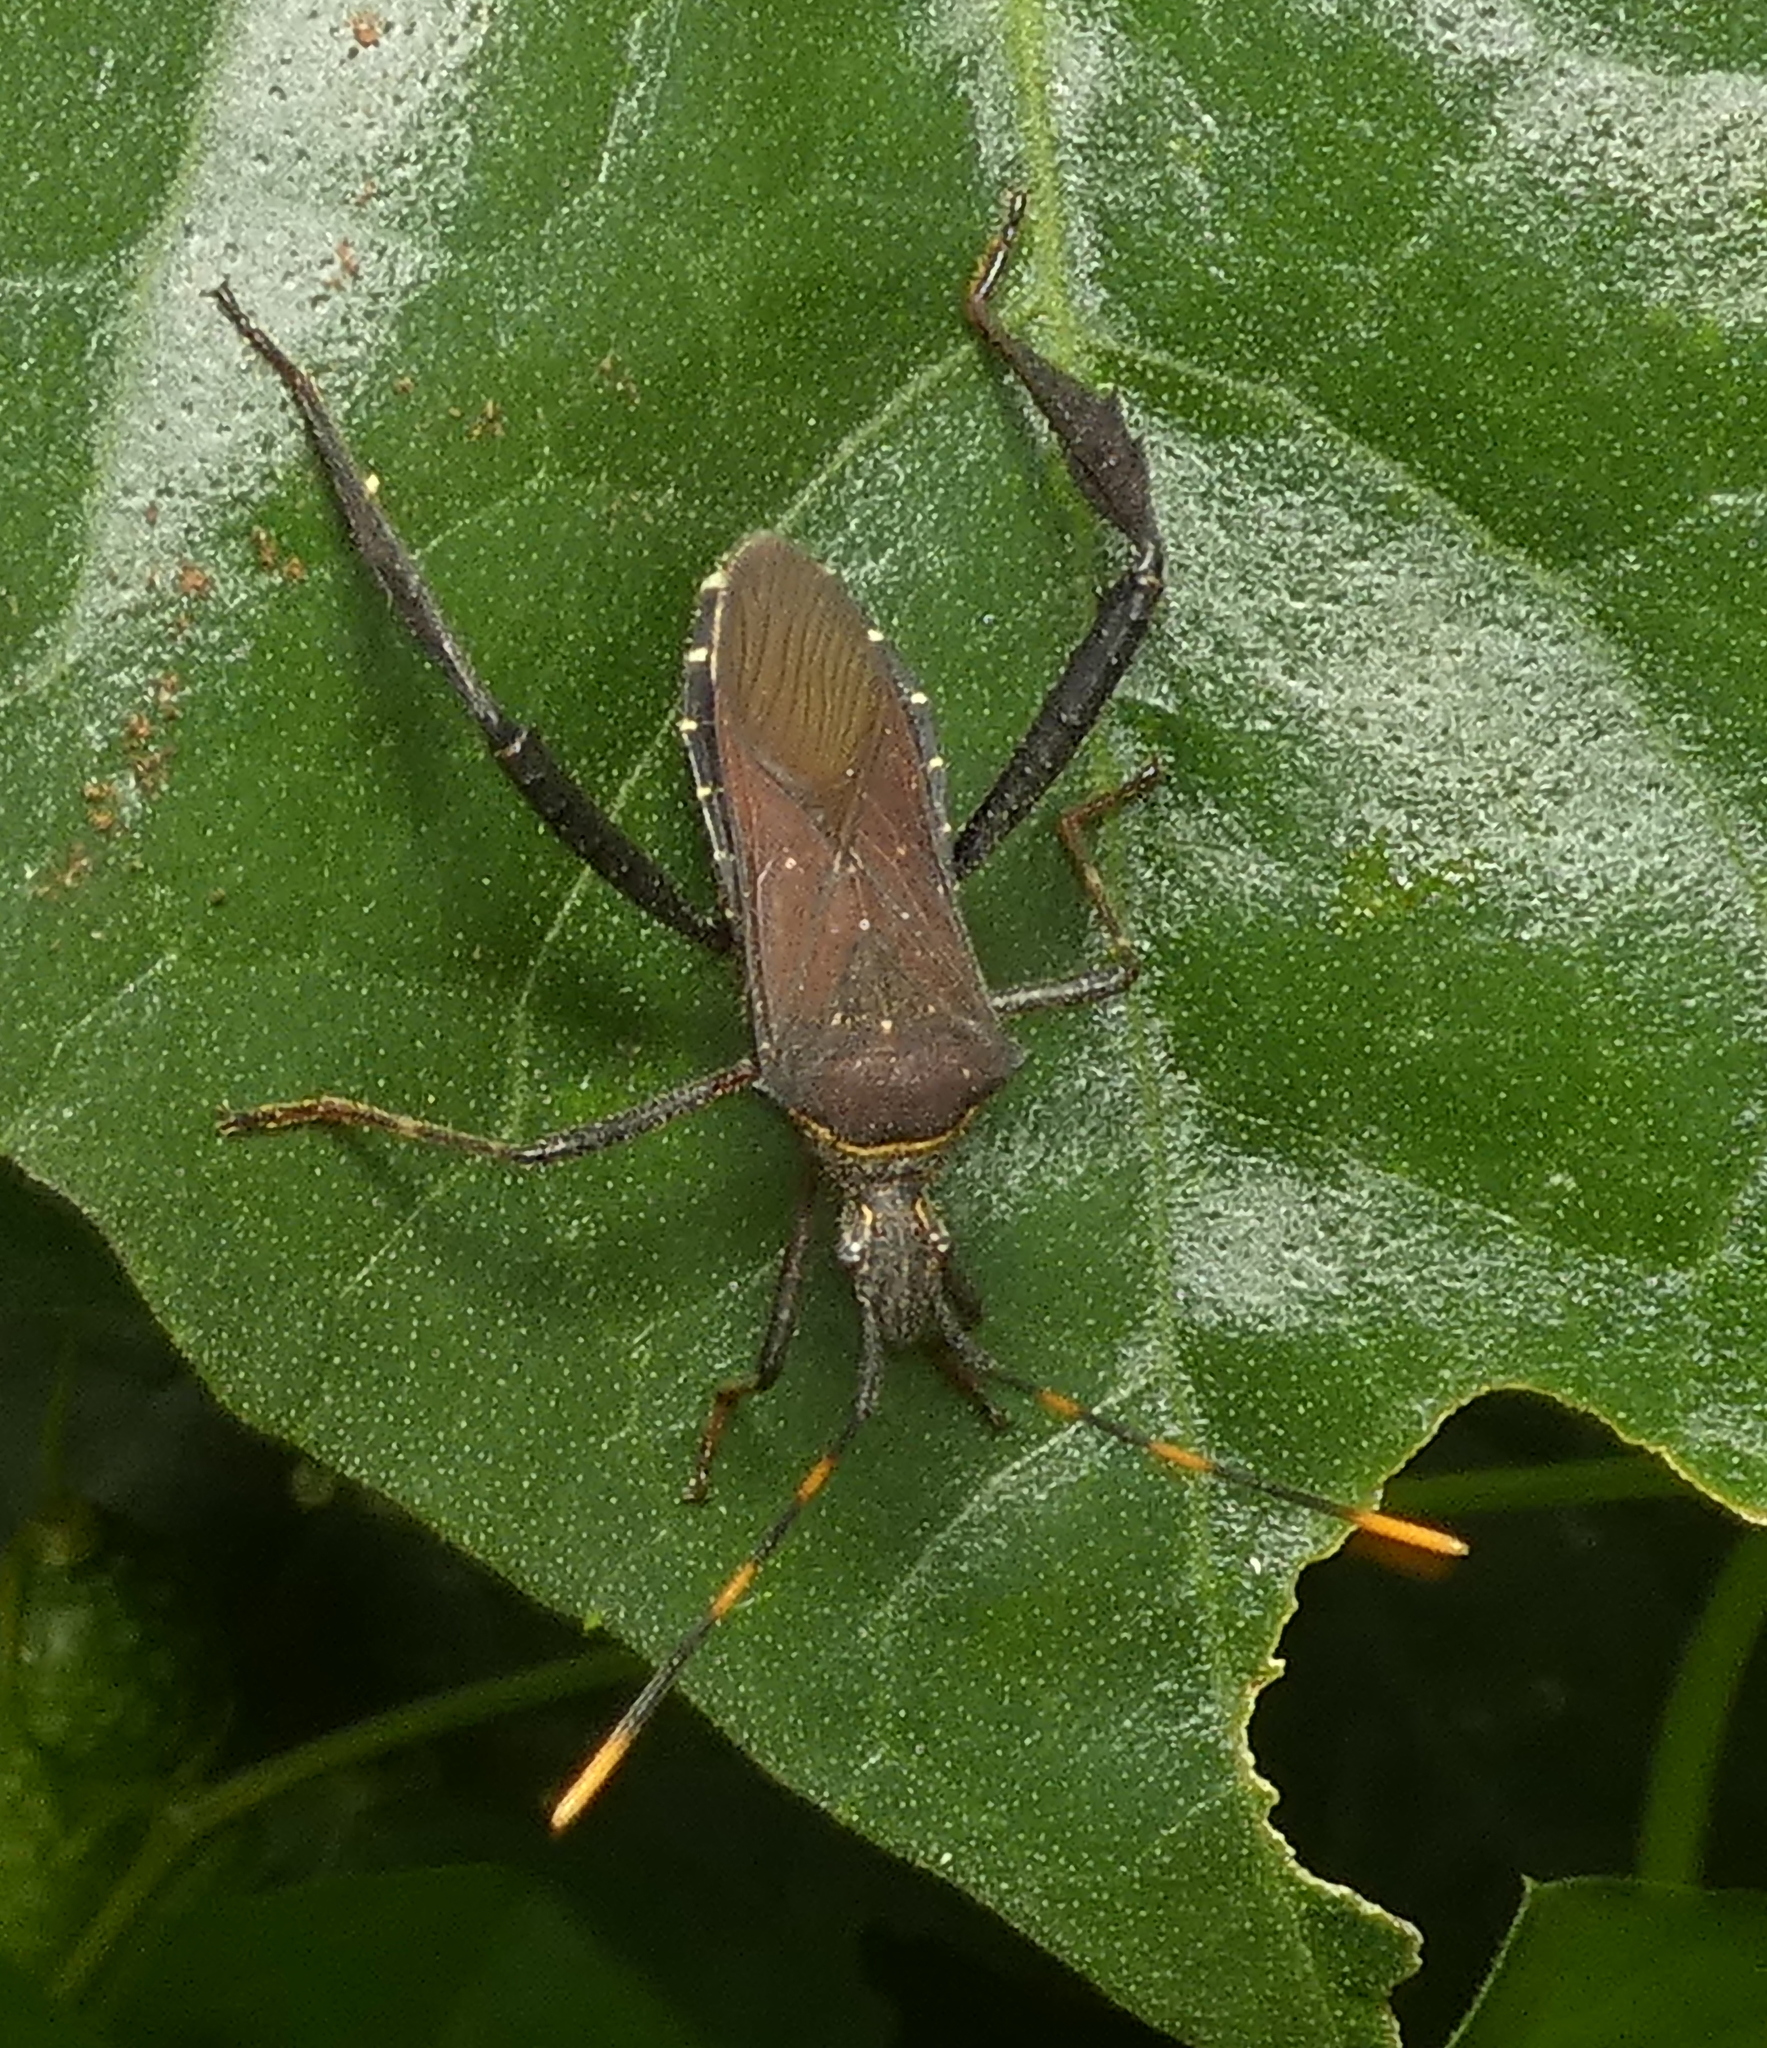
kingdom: Animalia
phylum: Arthropoda
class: Insecta
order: Hemiptera
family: Coreidae
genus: Leptoglossus
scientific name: Leptoglossus gonagra
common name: Citron bug
